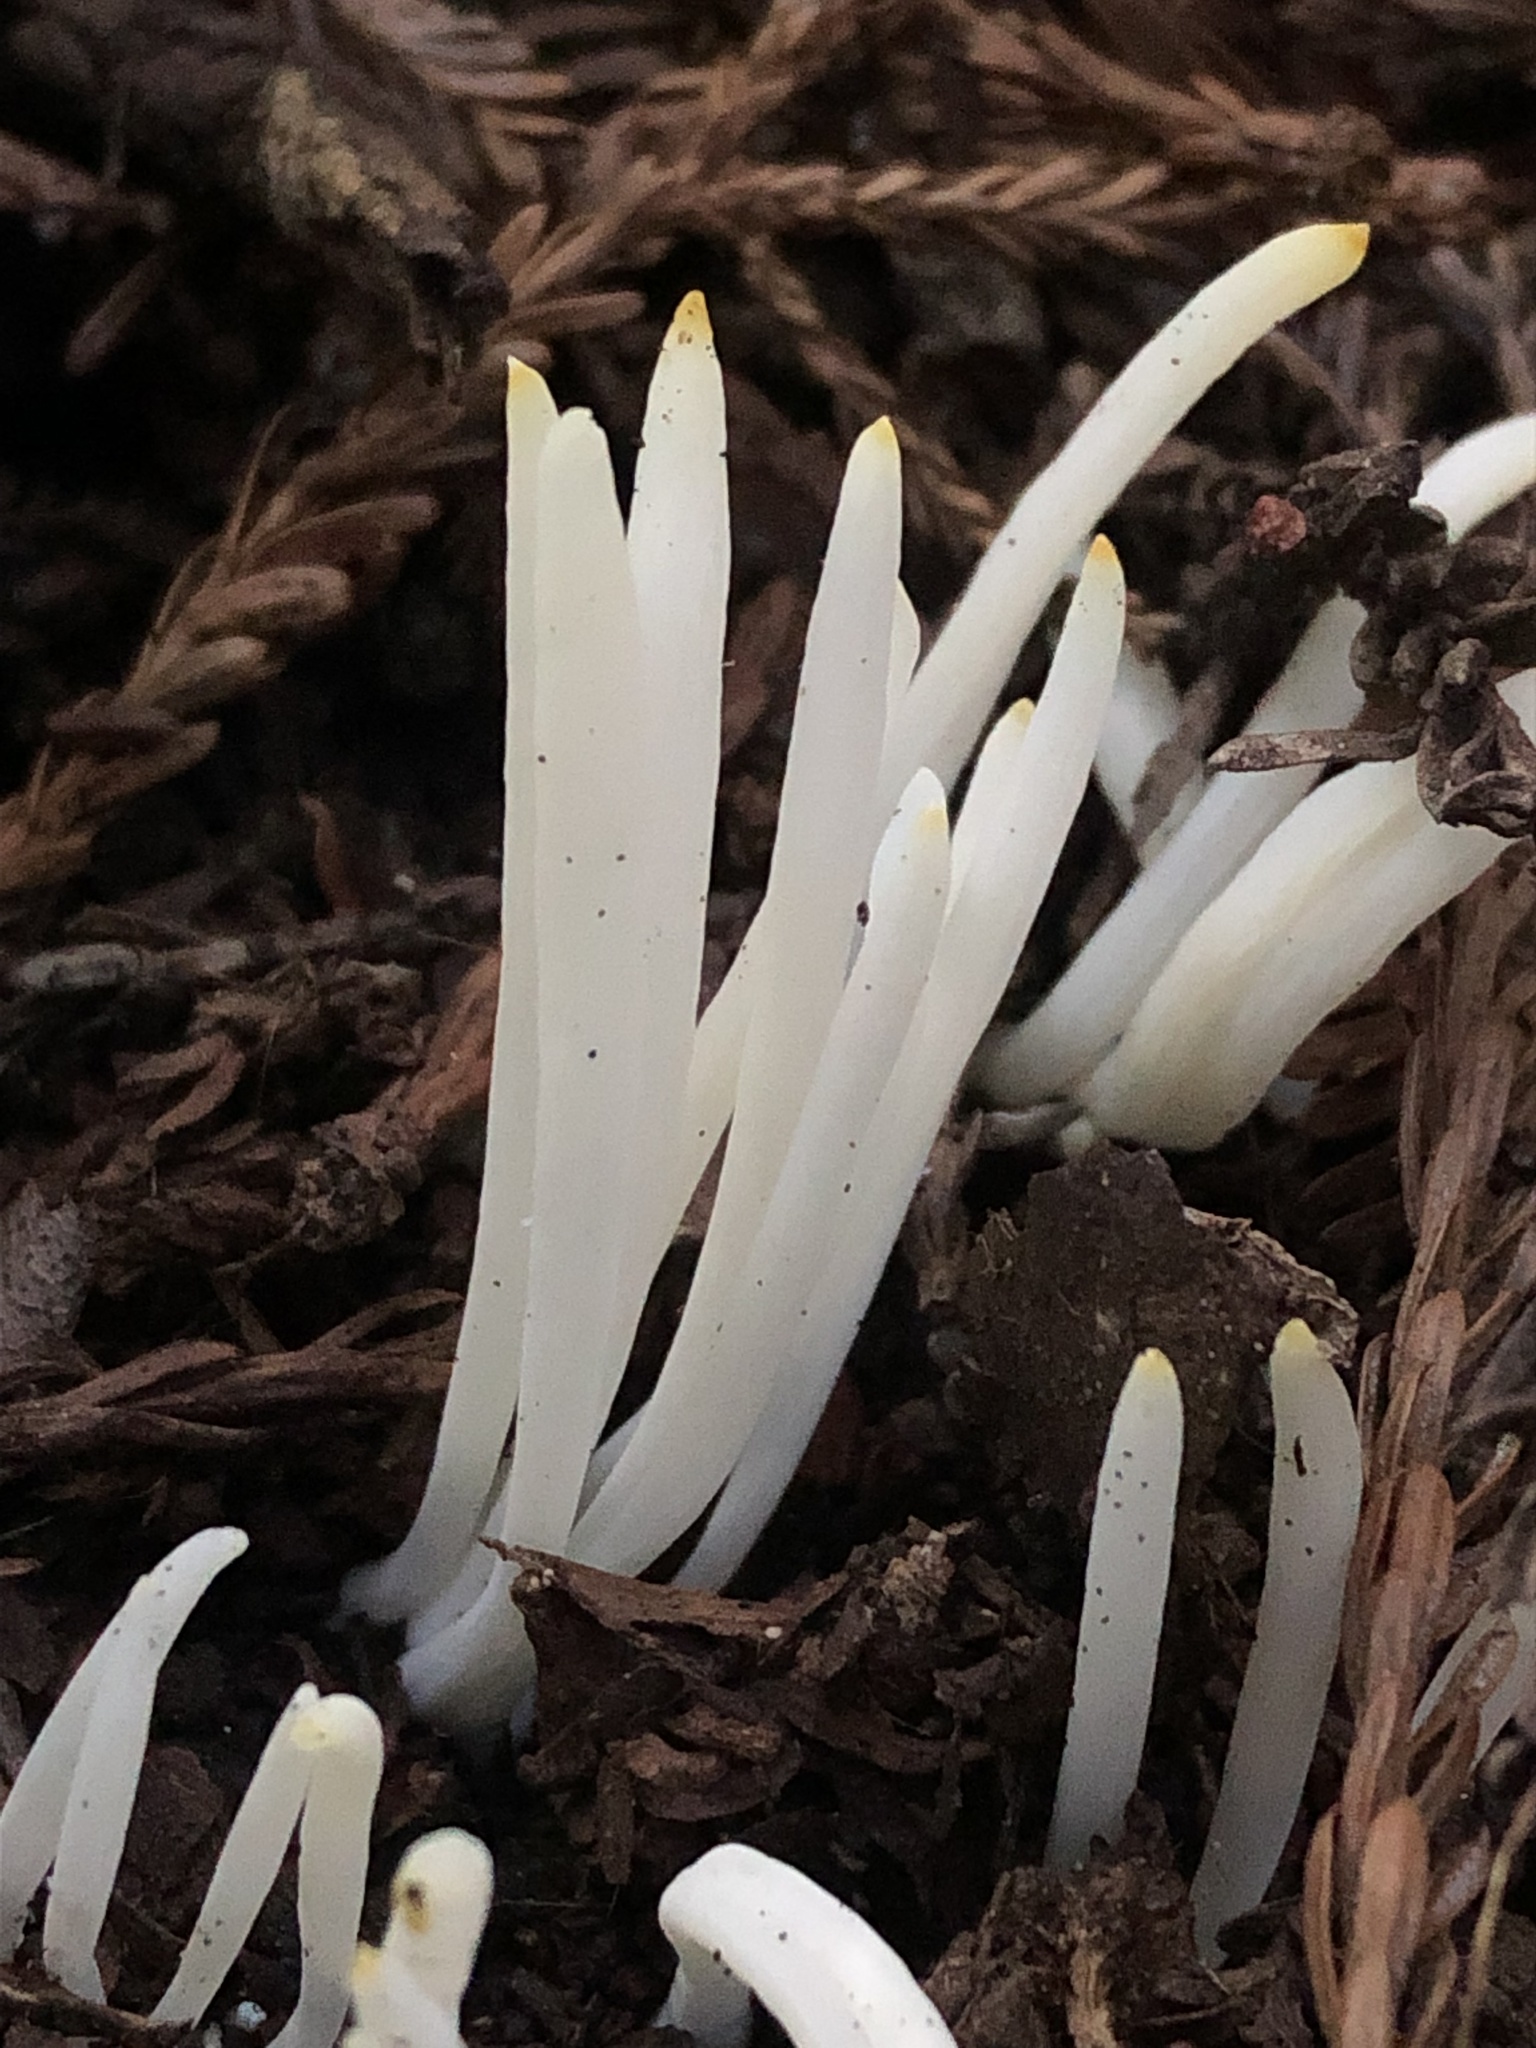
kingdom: Fungi
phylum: Basidiomycota
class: Agaricomycetes
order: Agaricales
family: Clavariaceae
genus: Clavaria
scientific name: Clavaria fragilis
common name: White spindles
